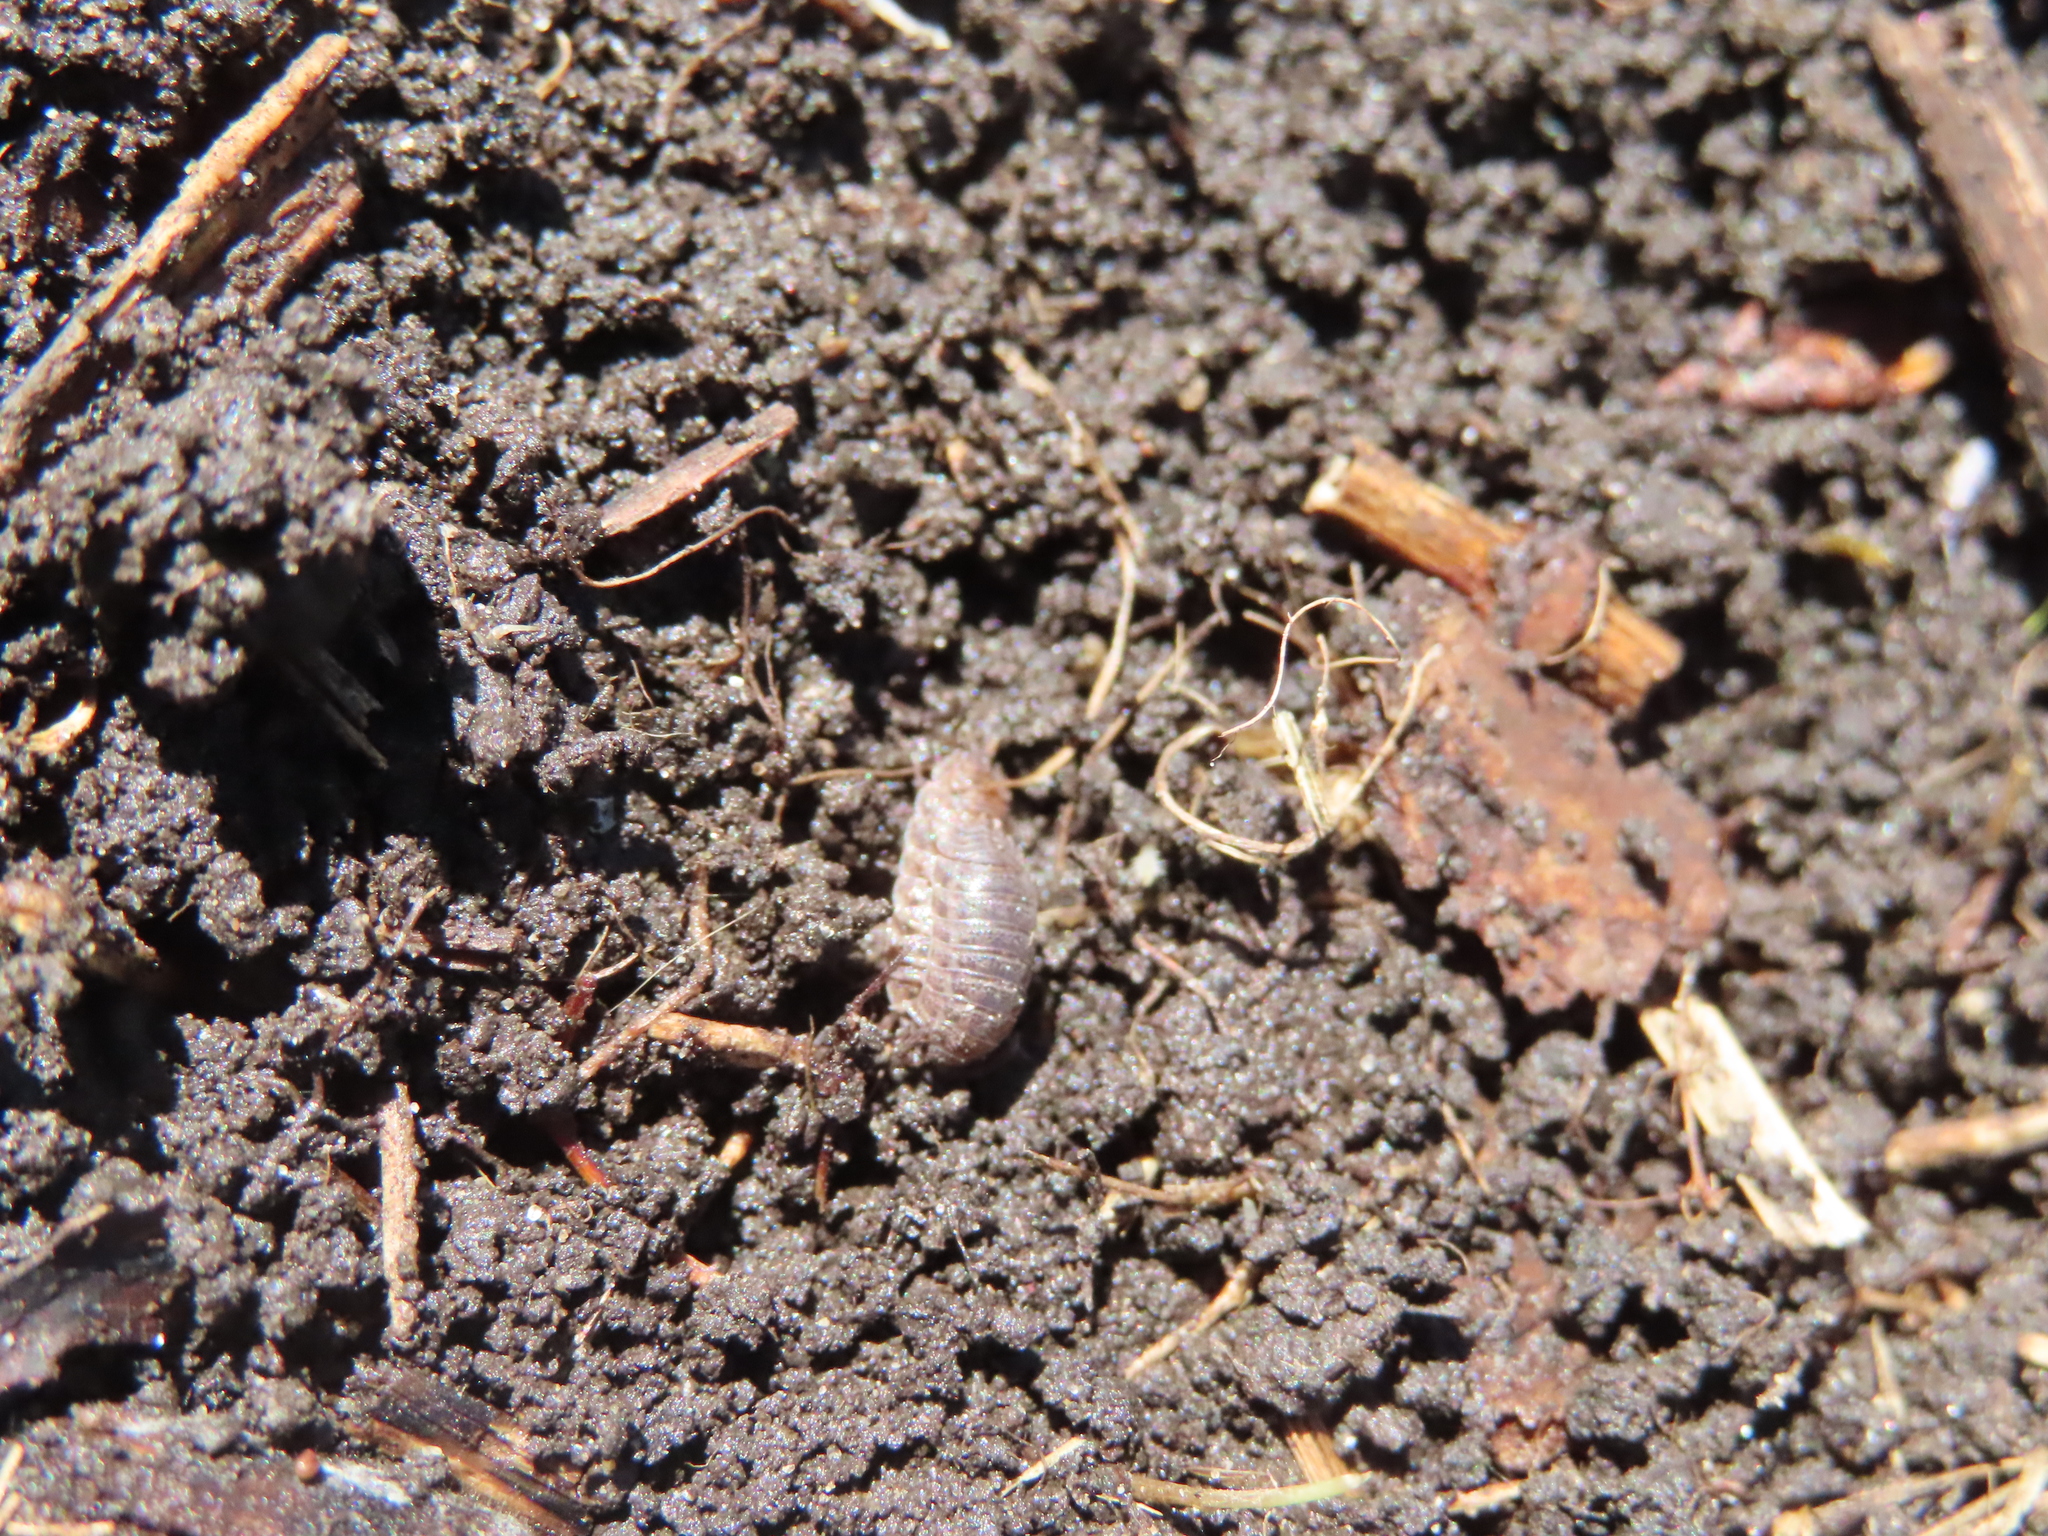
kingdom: Animalia
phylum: Arthropoda
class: Malacostraca
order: Isopoda
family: Trachelipodidae
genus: Trachelipus
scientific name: Trachelipus rathkii
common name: Isopod
